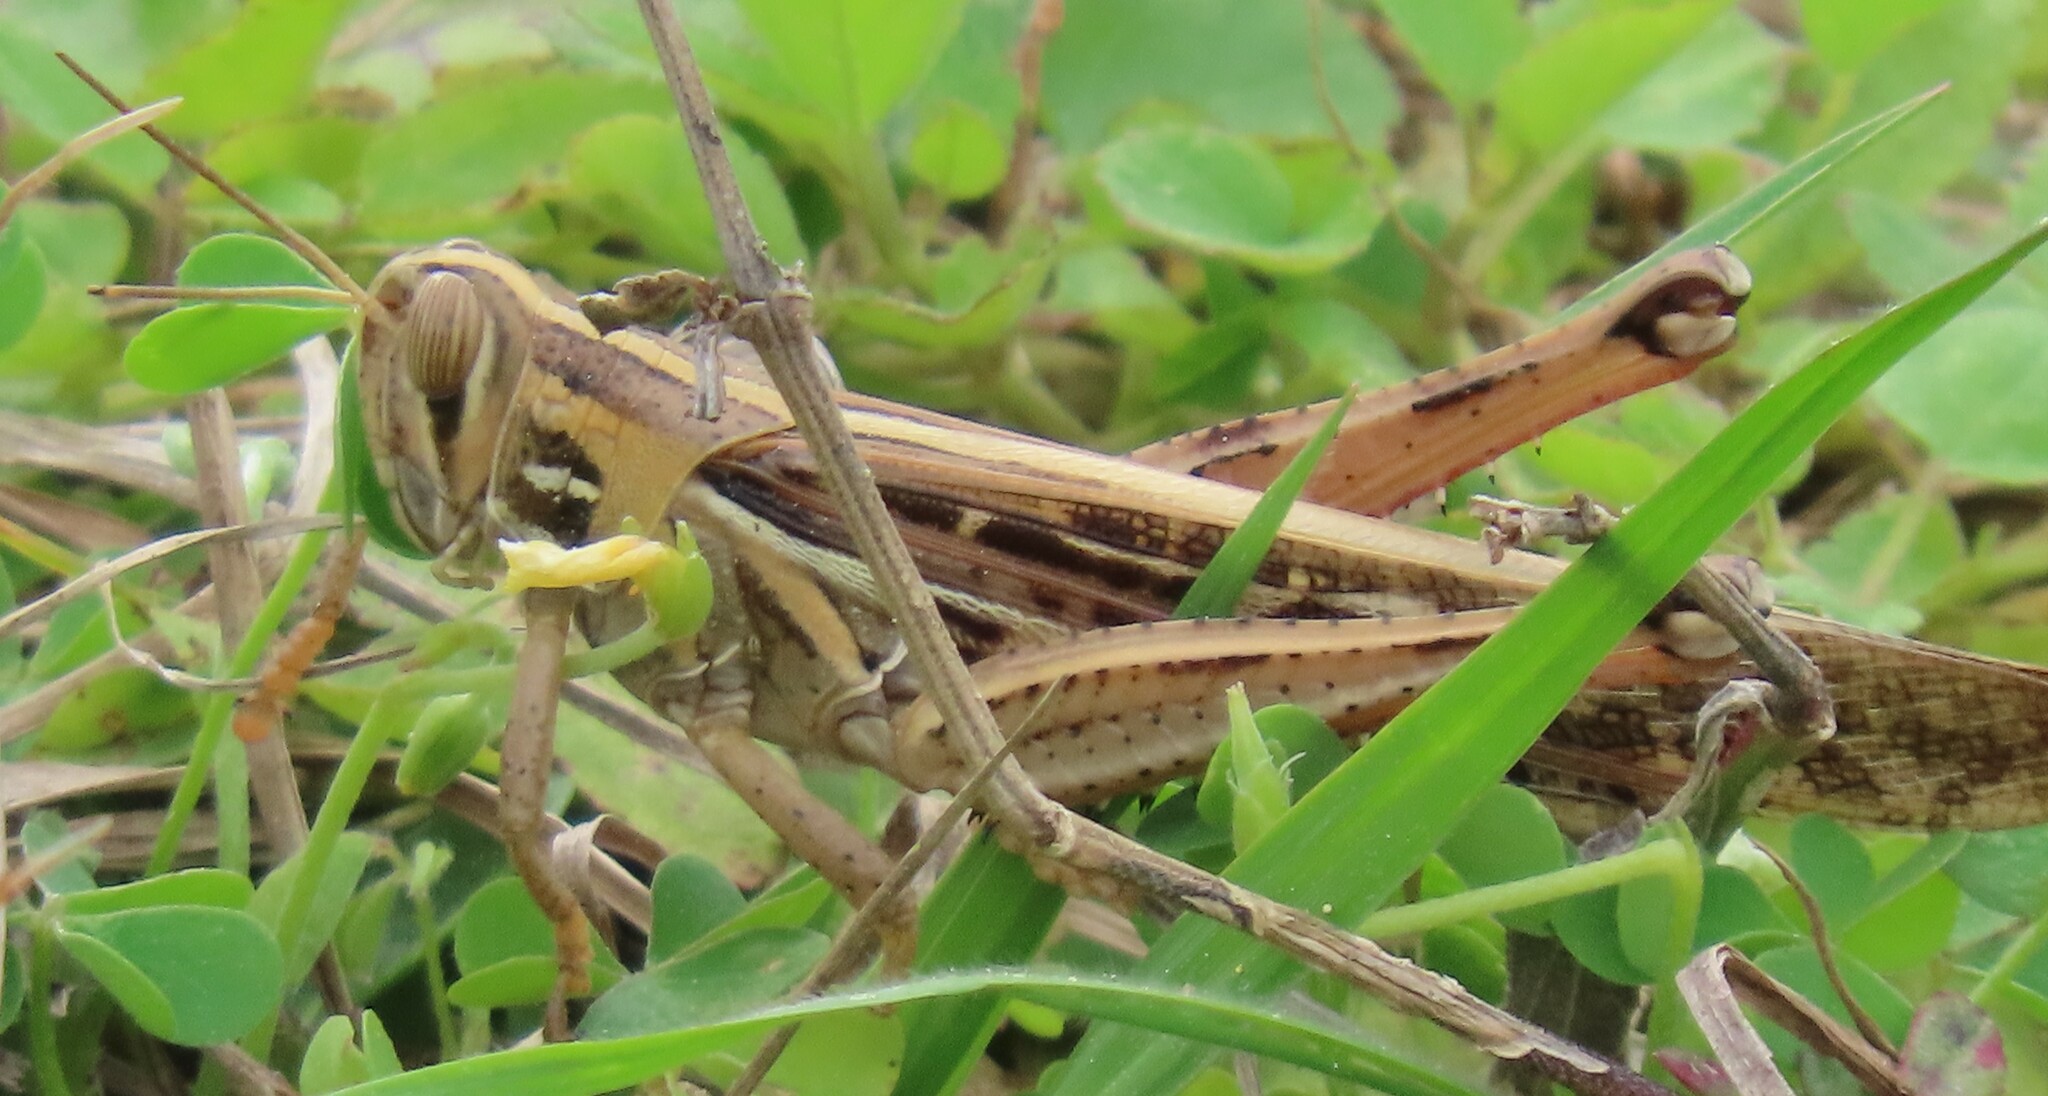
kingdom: Animalia
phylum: Arthropoda
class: Insecta
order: Orthoptera
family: Acrididae
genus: Schistocerca
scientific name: Schistocerca americana
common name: American bird locust
